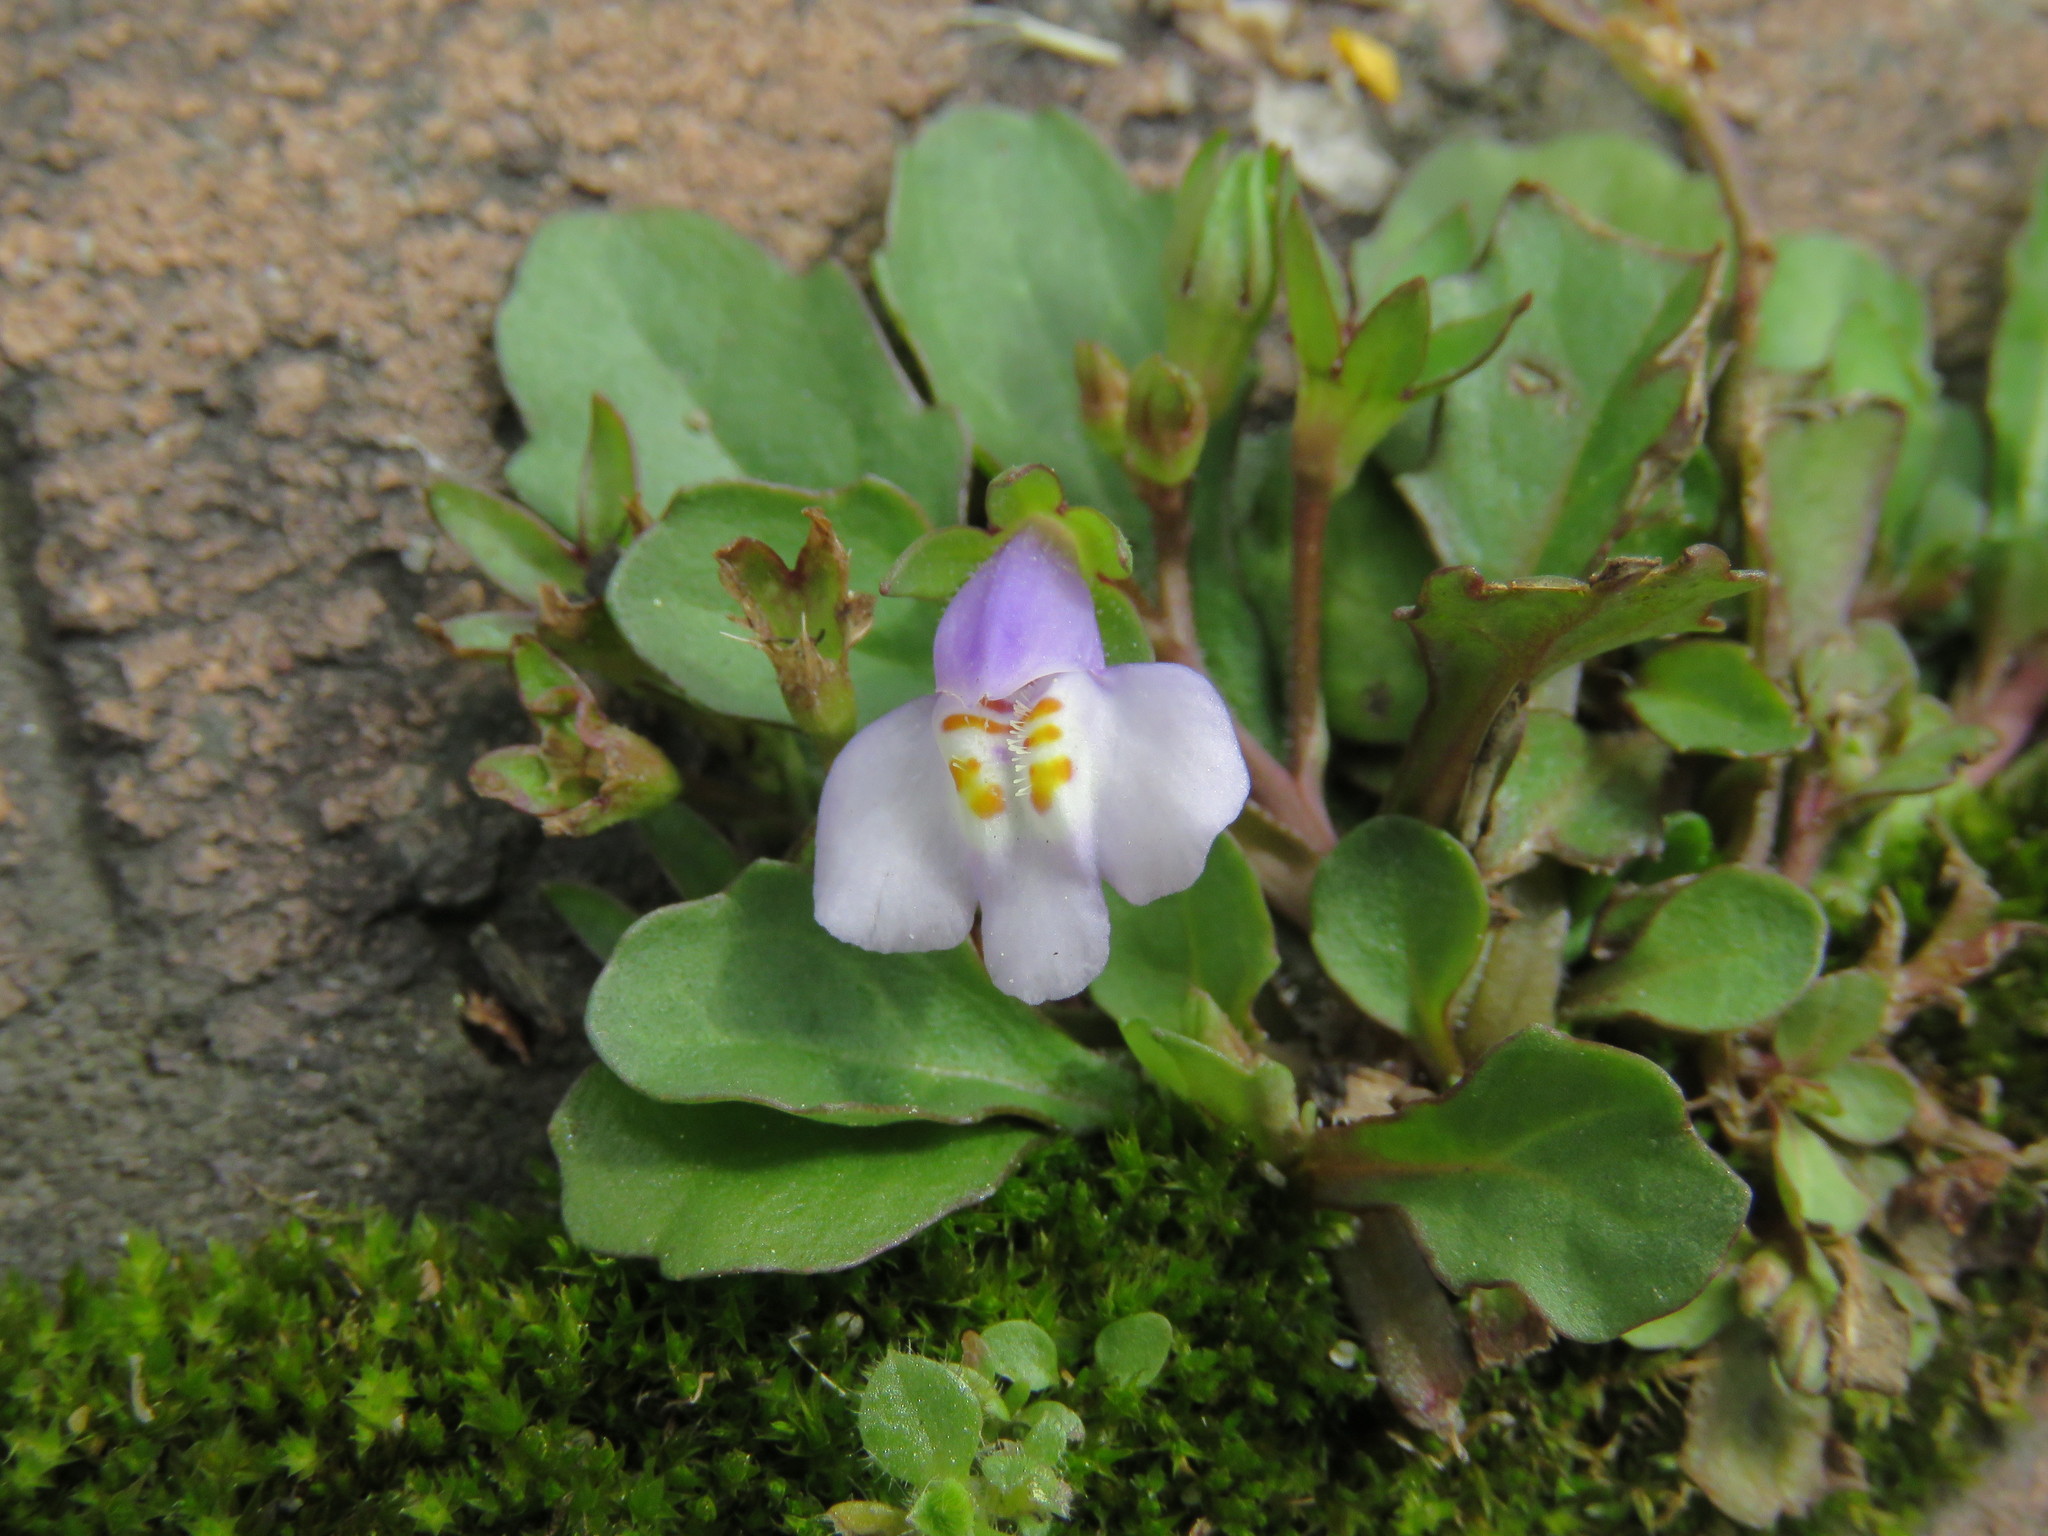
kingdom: Plantae
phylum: Tracheophyta
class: Magnoliopsida
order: Lamiales
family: Mazaceae
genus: Mazus
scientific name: Mazus pumilus
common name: Japanese mazus
